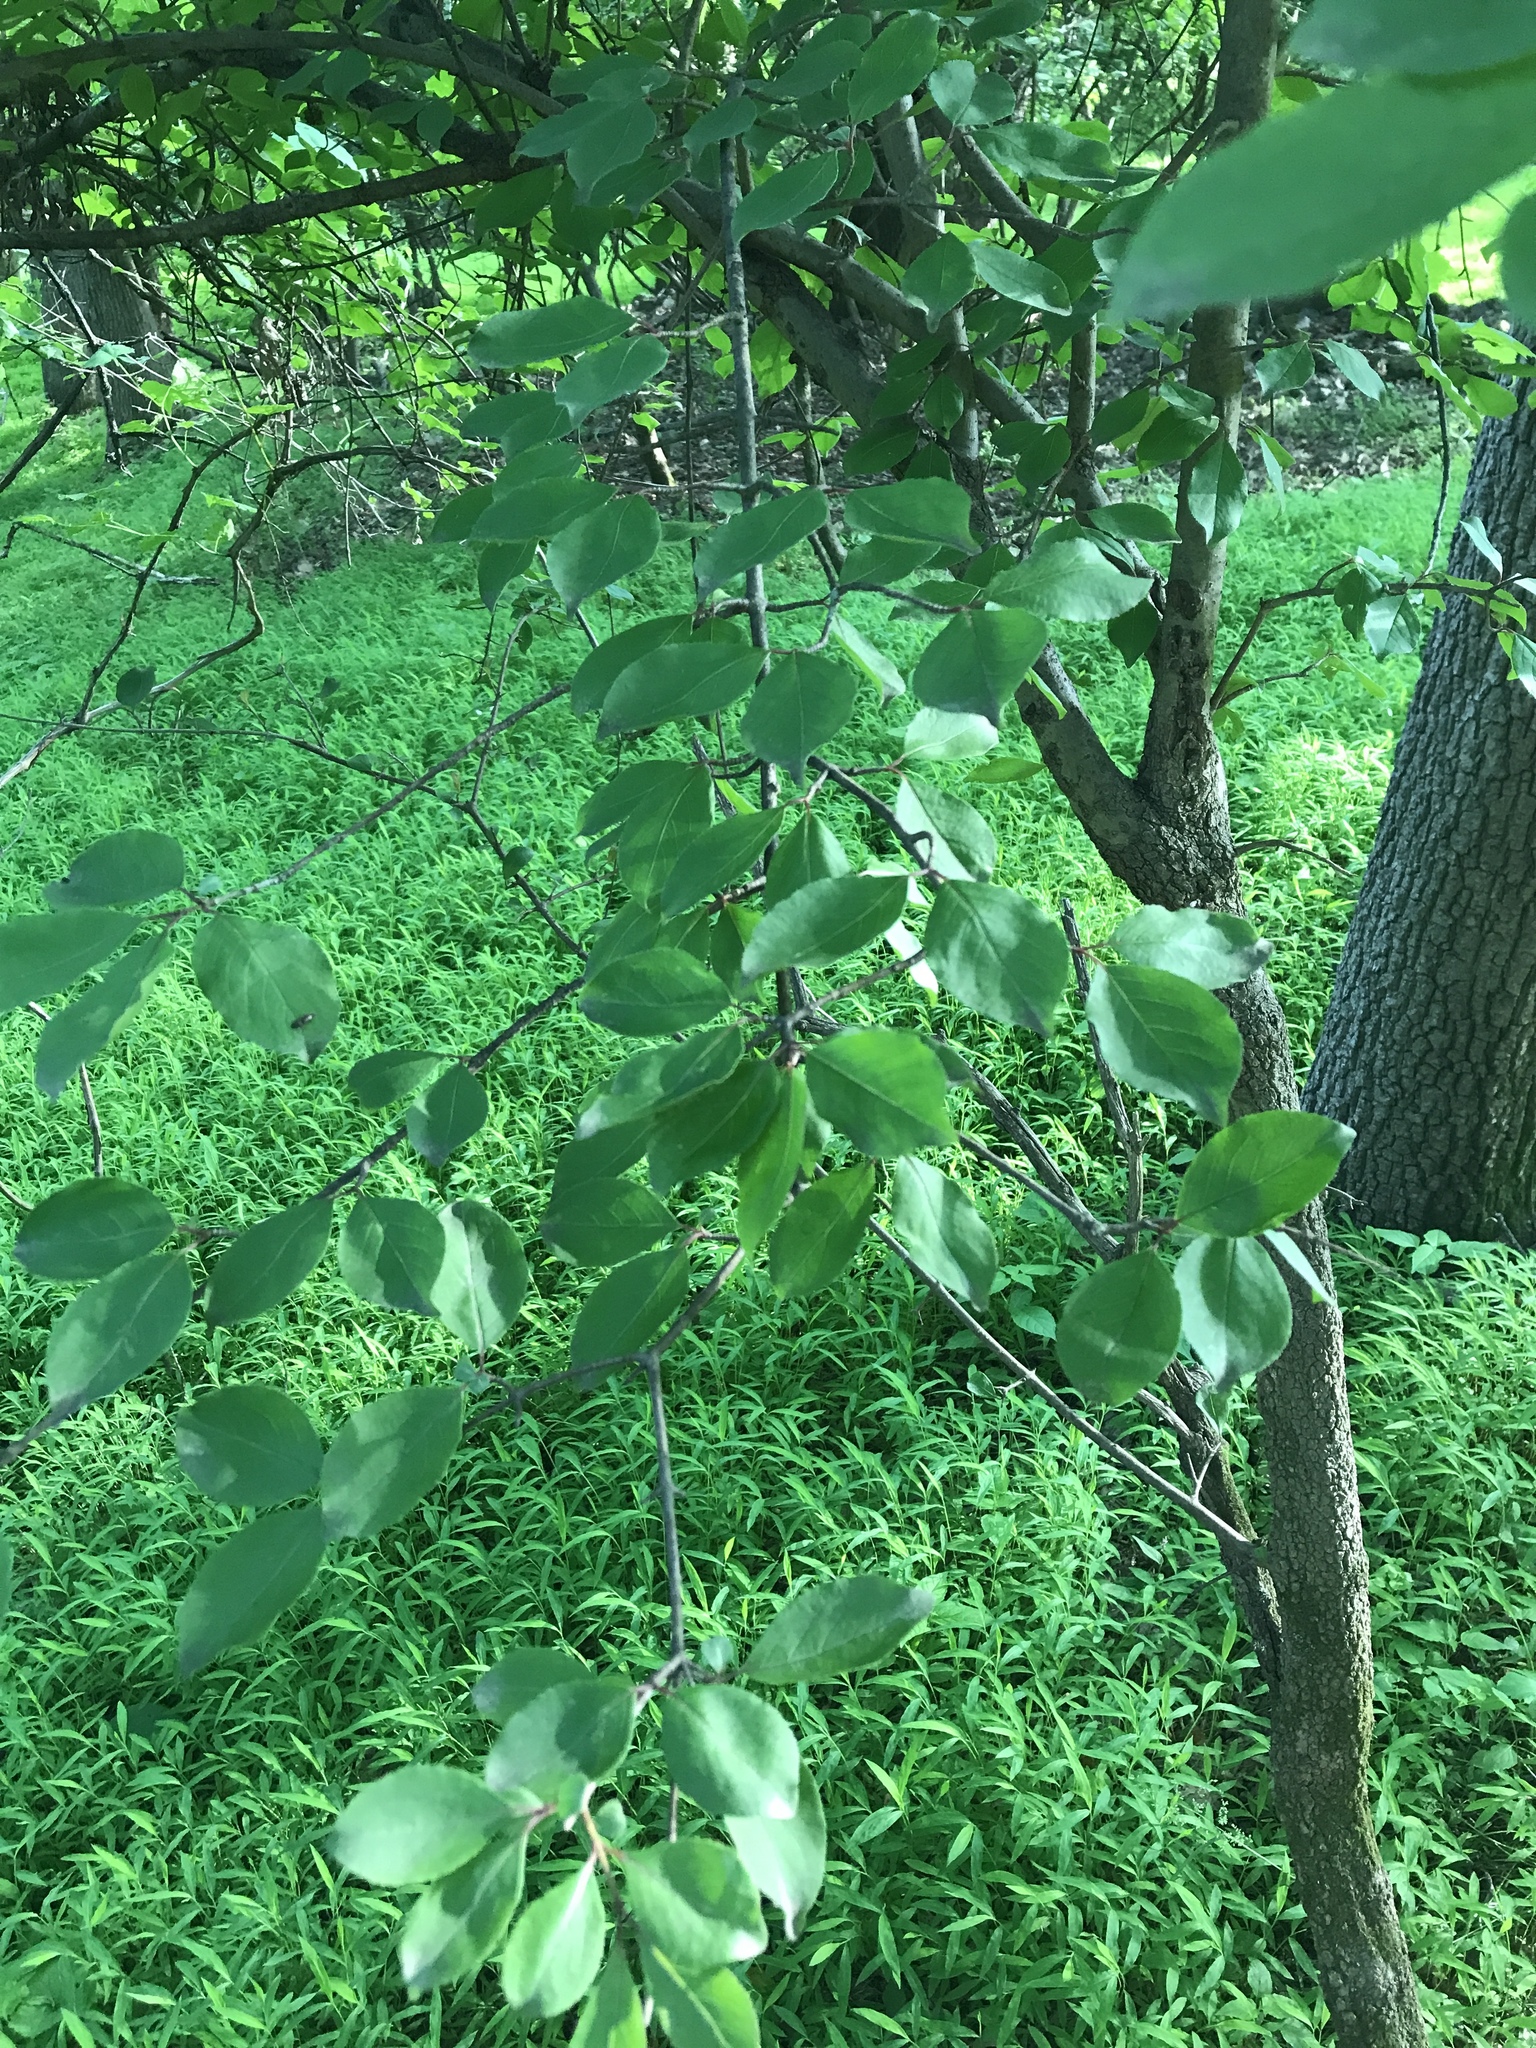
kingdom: Plantae
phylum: Tracheophyta
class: Magnoliopsida
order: Dipsacales
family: Viburnaceae
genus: Viburnum
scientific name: Viburnum prunifolium
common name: Black haw
